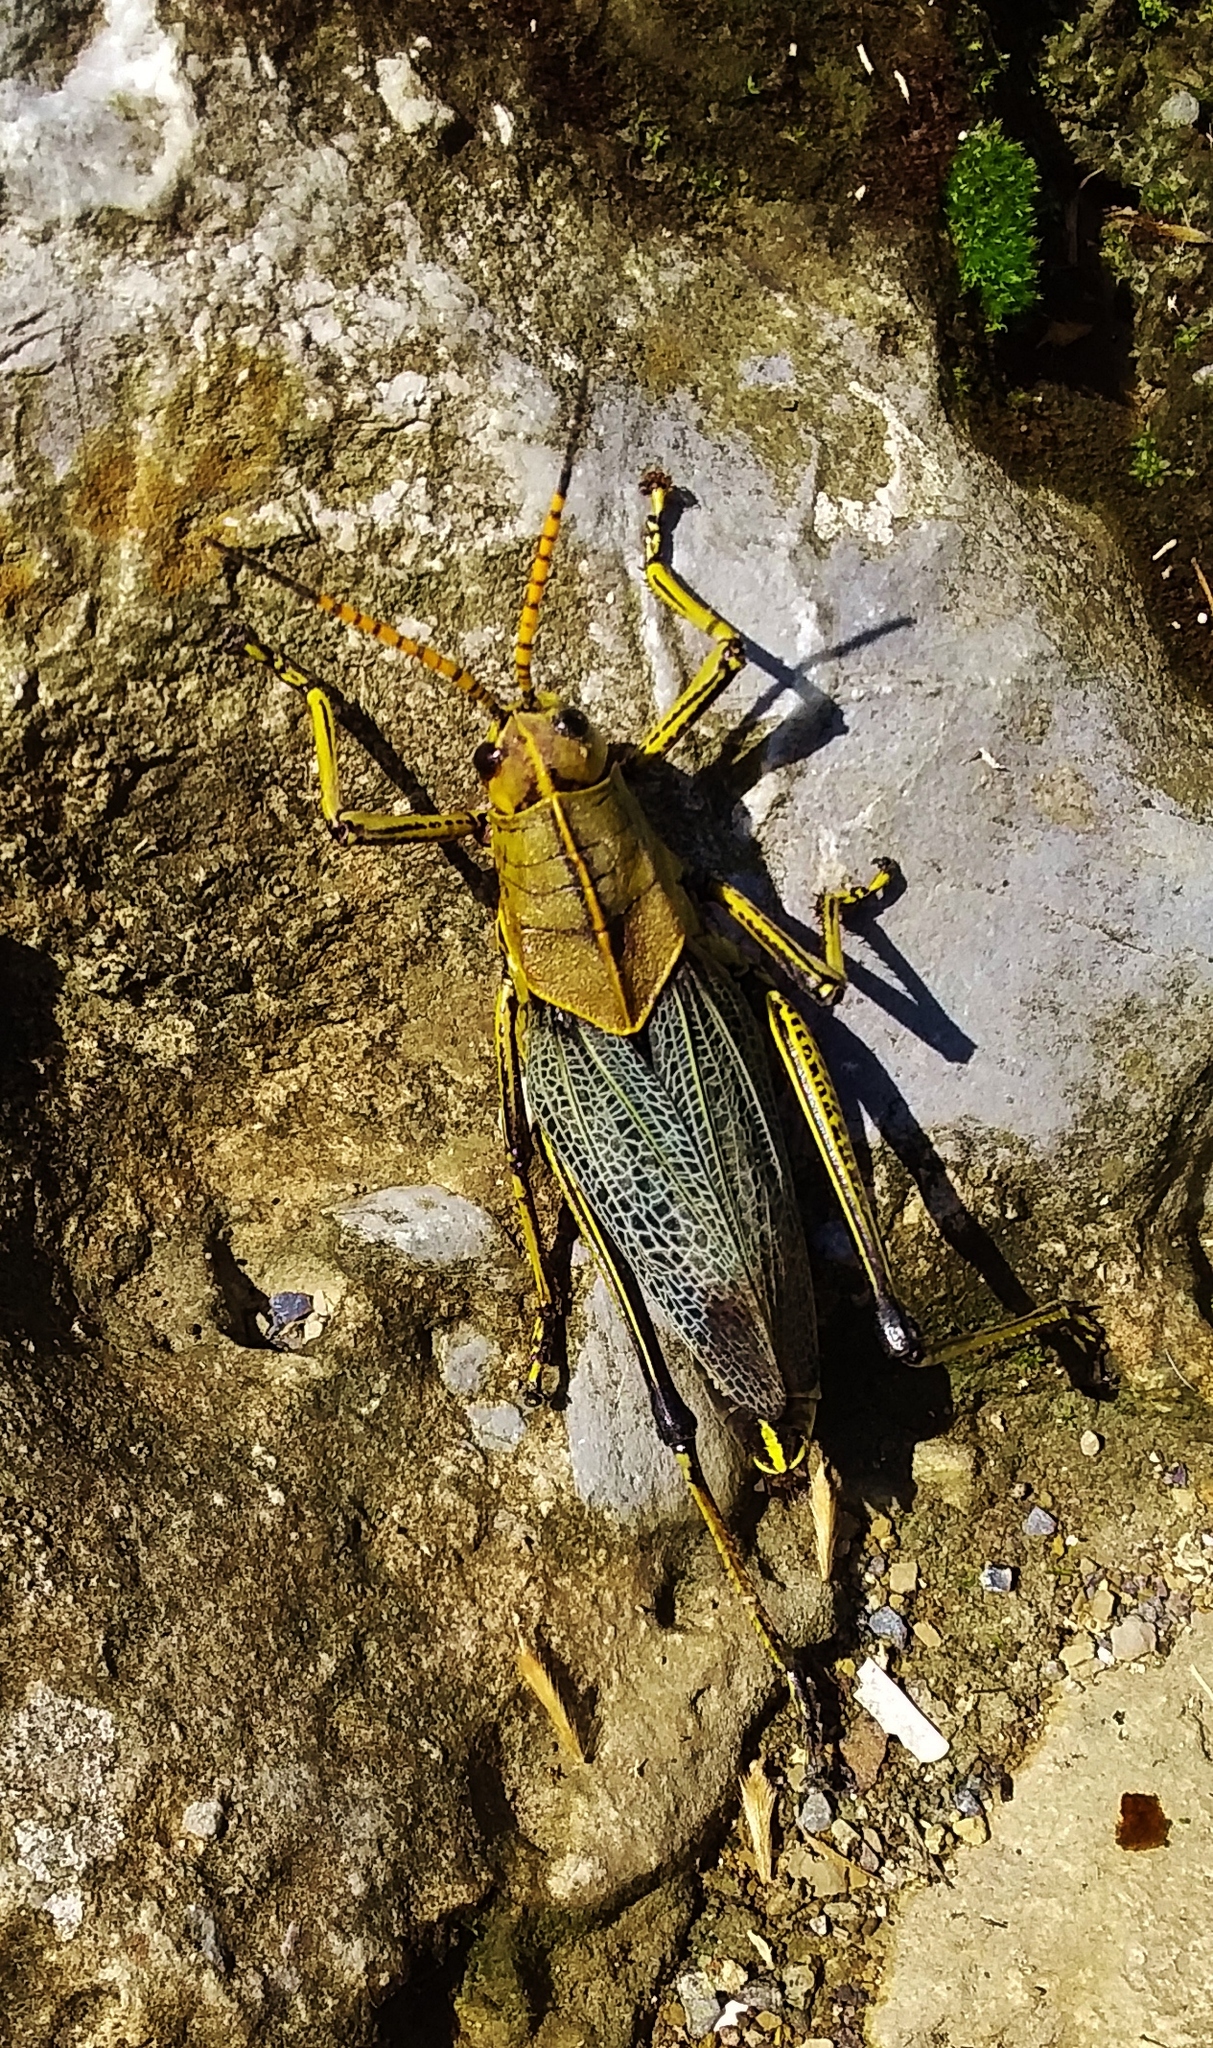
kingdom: Animalia
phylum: Arthropoda
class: Insecta
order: Orthoptera
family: Romaleidae
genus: Romalea
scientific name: Romalea
